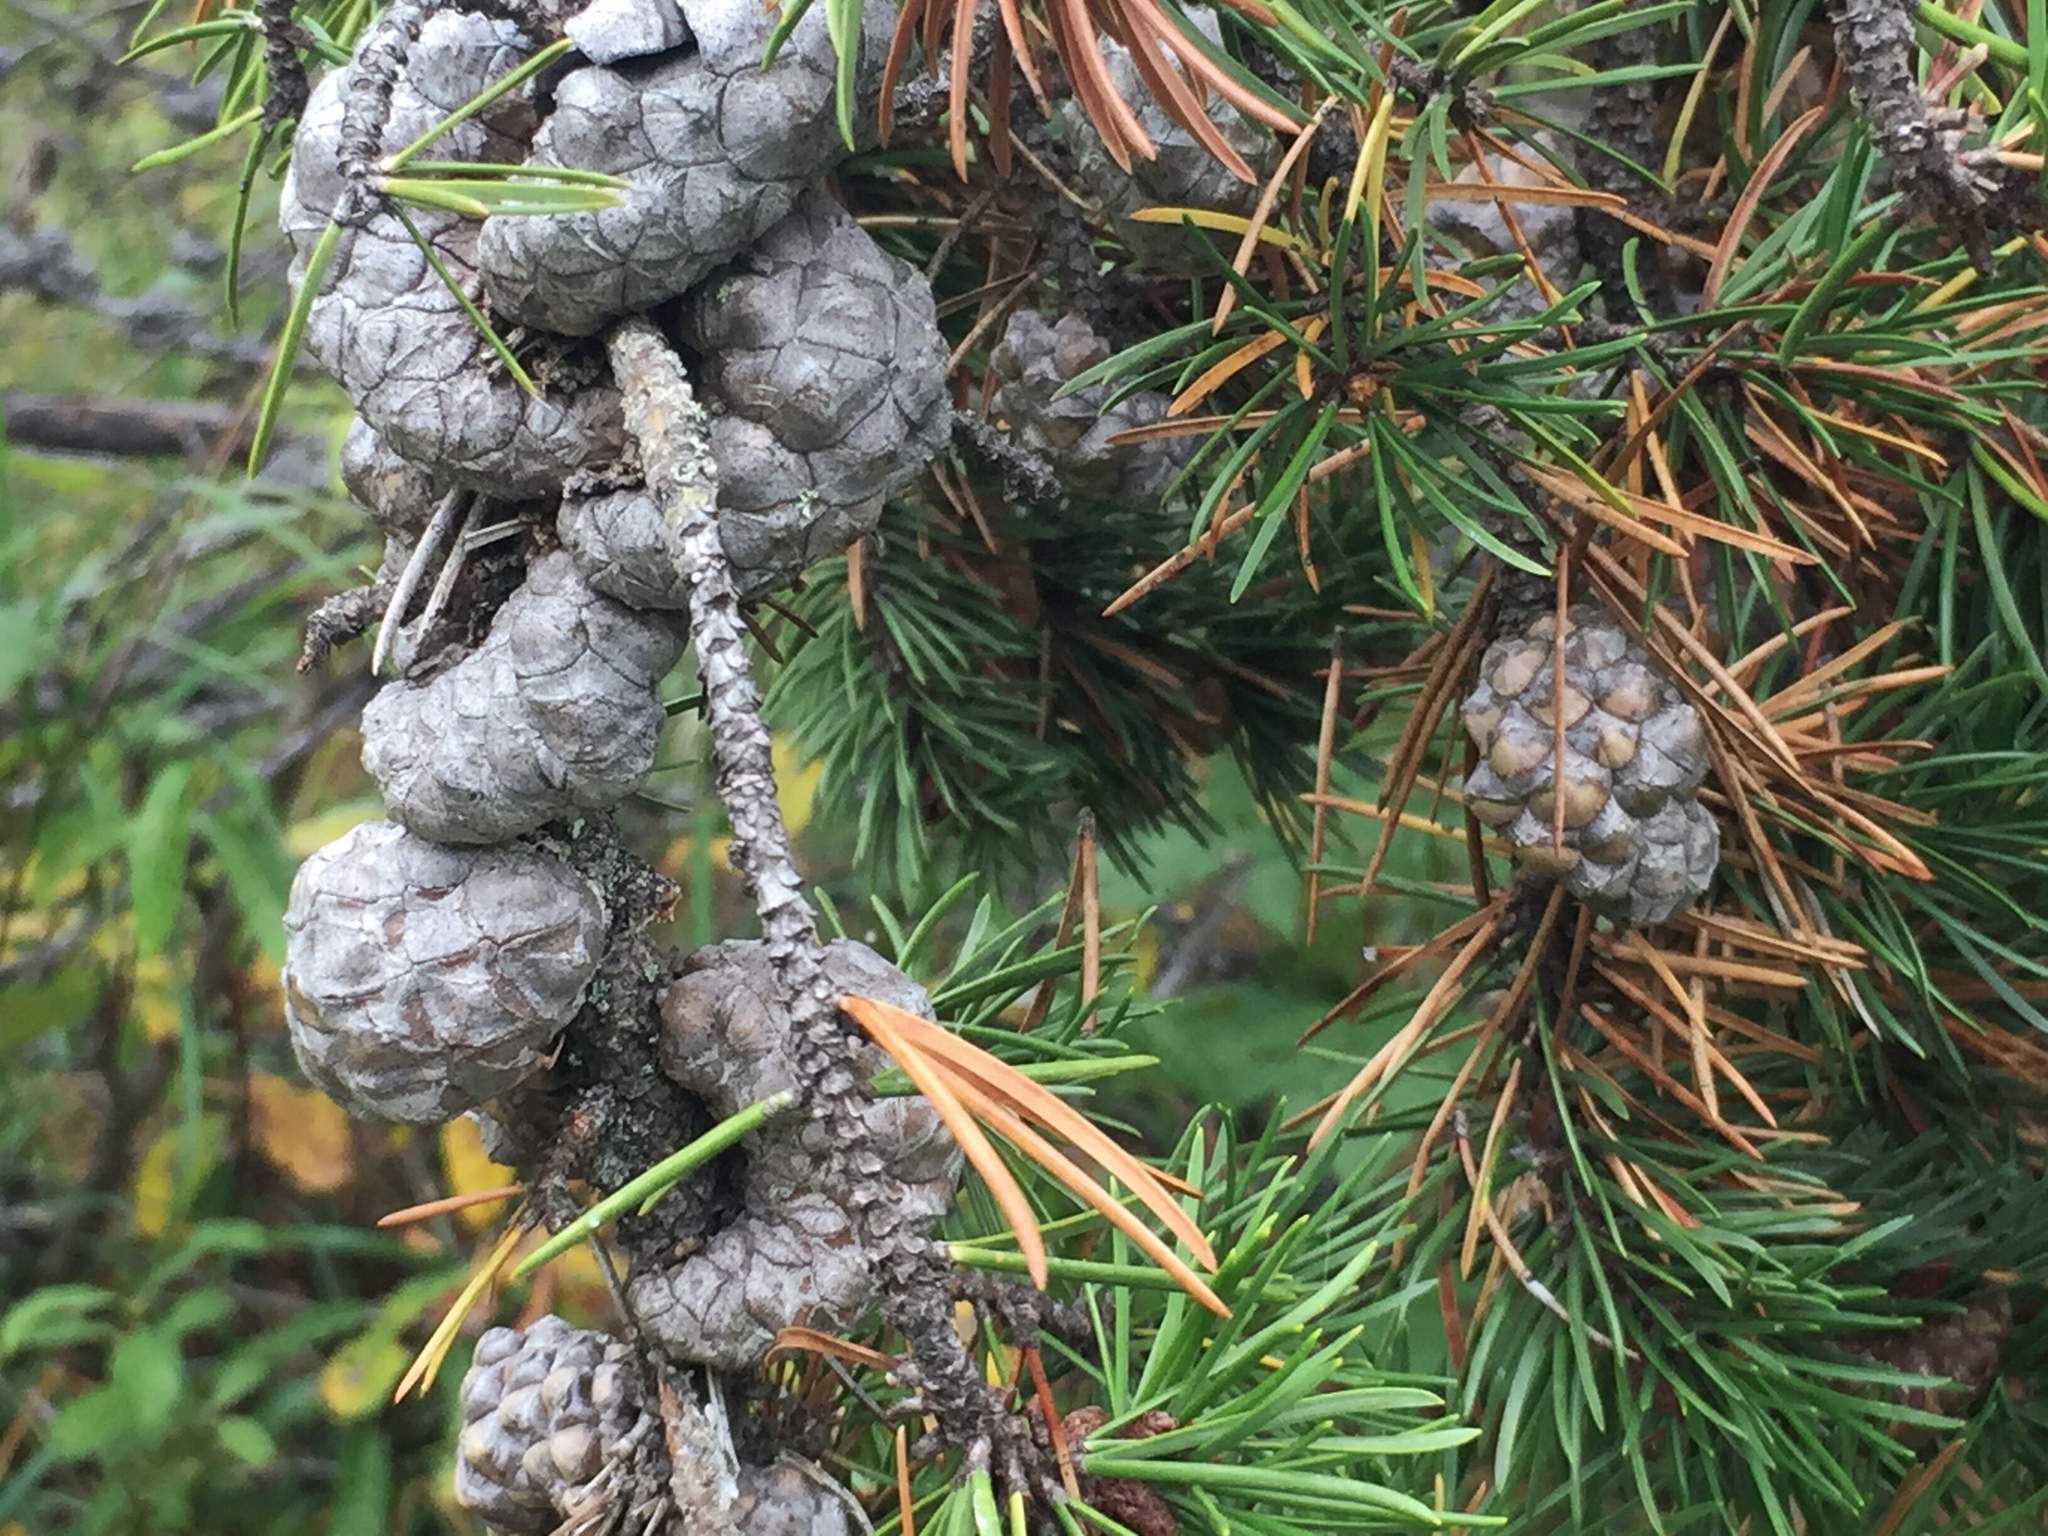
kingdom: Plantae
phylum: Tracheophyta
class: Pinopsida
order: Pinales
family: Pinaceae
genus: Pinus
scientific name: Pinus banksiana
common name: Jack pine
